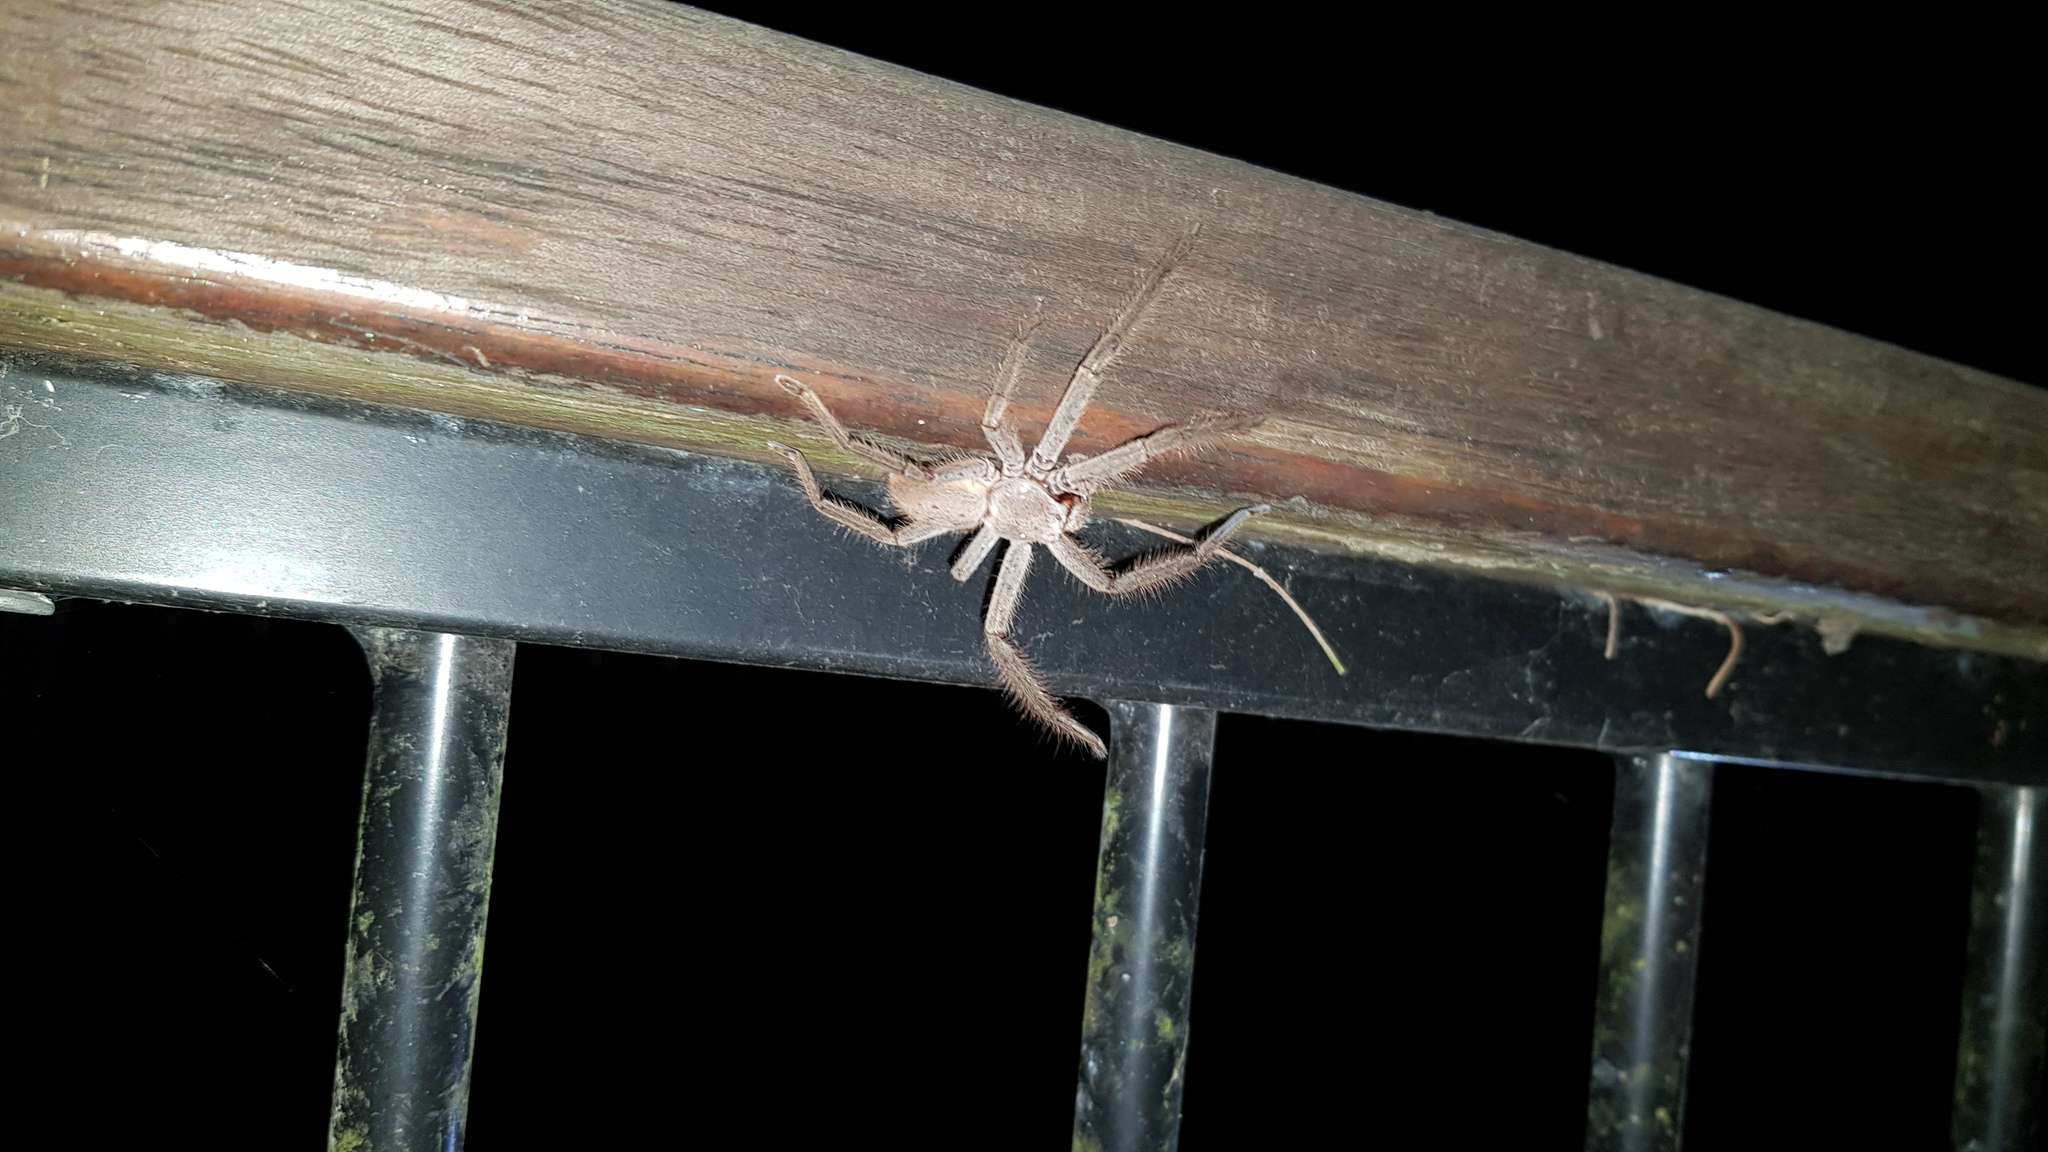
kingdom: Animalia
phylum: Arthropoda
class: Arachnida
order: Araneae
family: Sparassidae
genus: Isopeda
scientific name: Isopeda villosa
